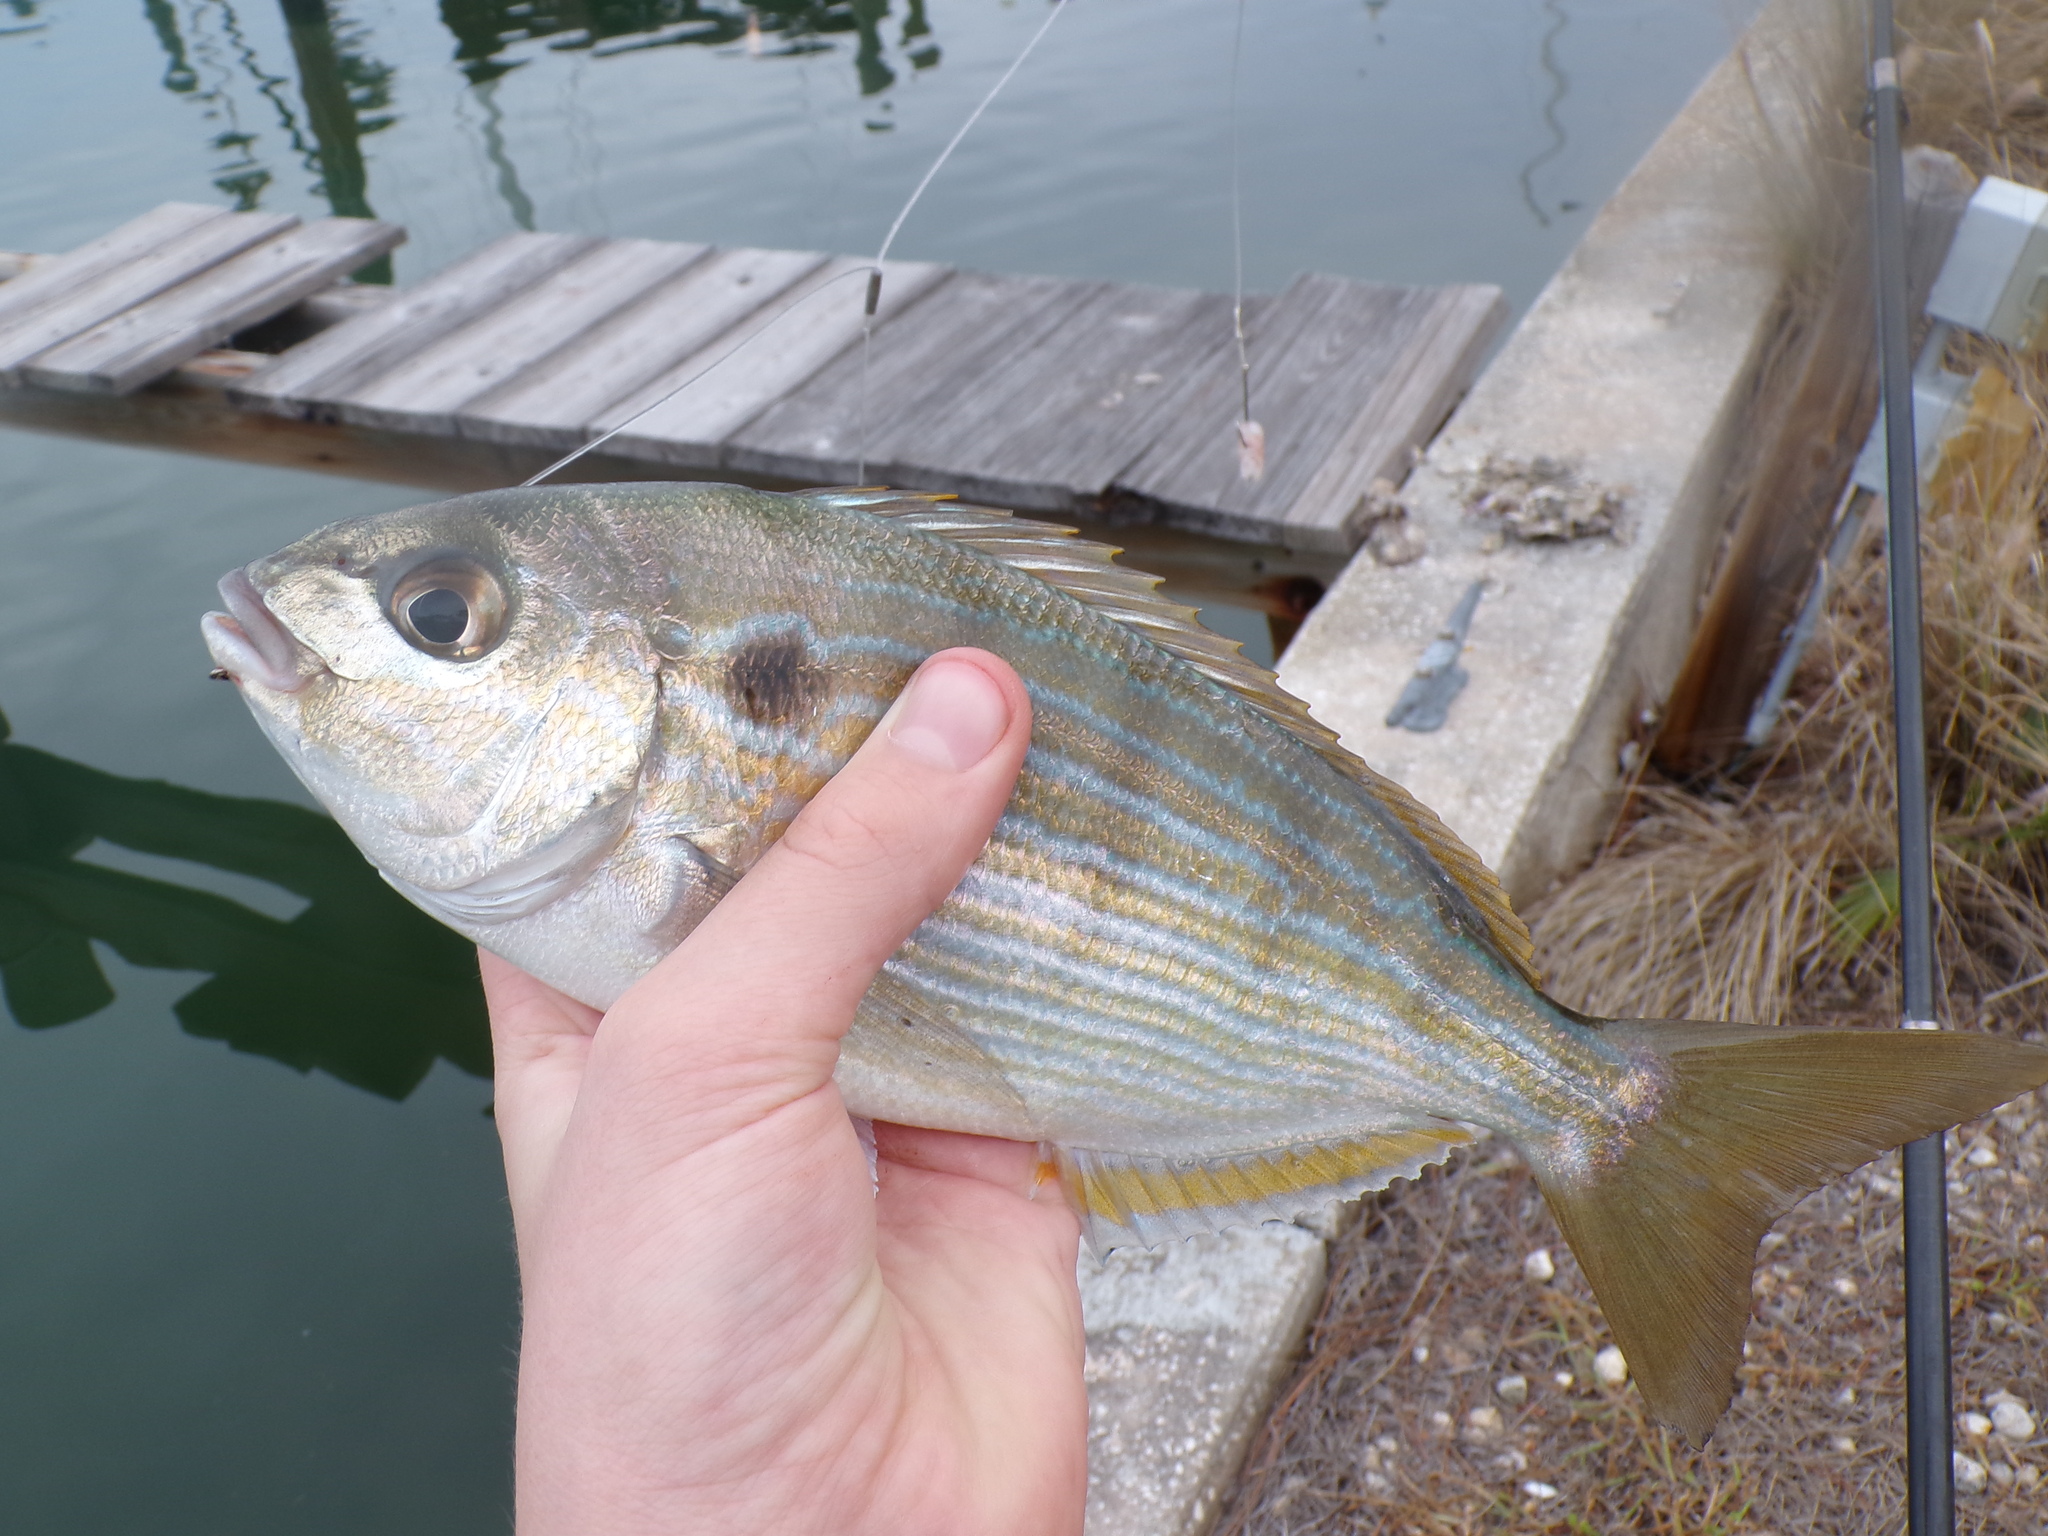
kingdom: Animalia
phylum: Chordata
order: Perciformes
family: Sparidae
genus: Lagodon
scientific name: Lagodon rhomboides
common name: Pinfish
